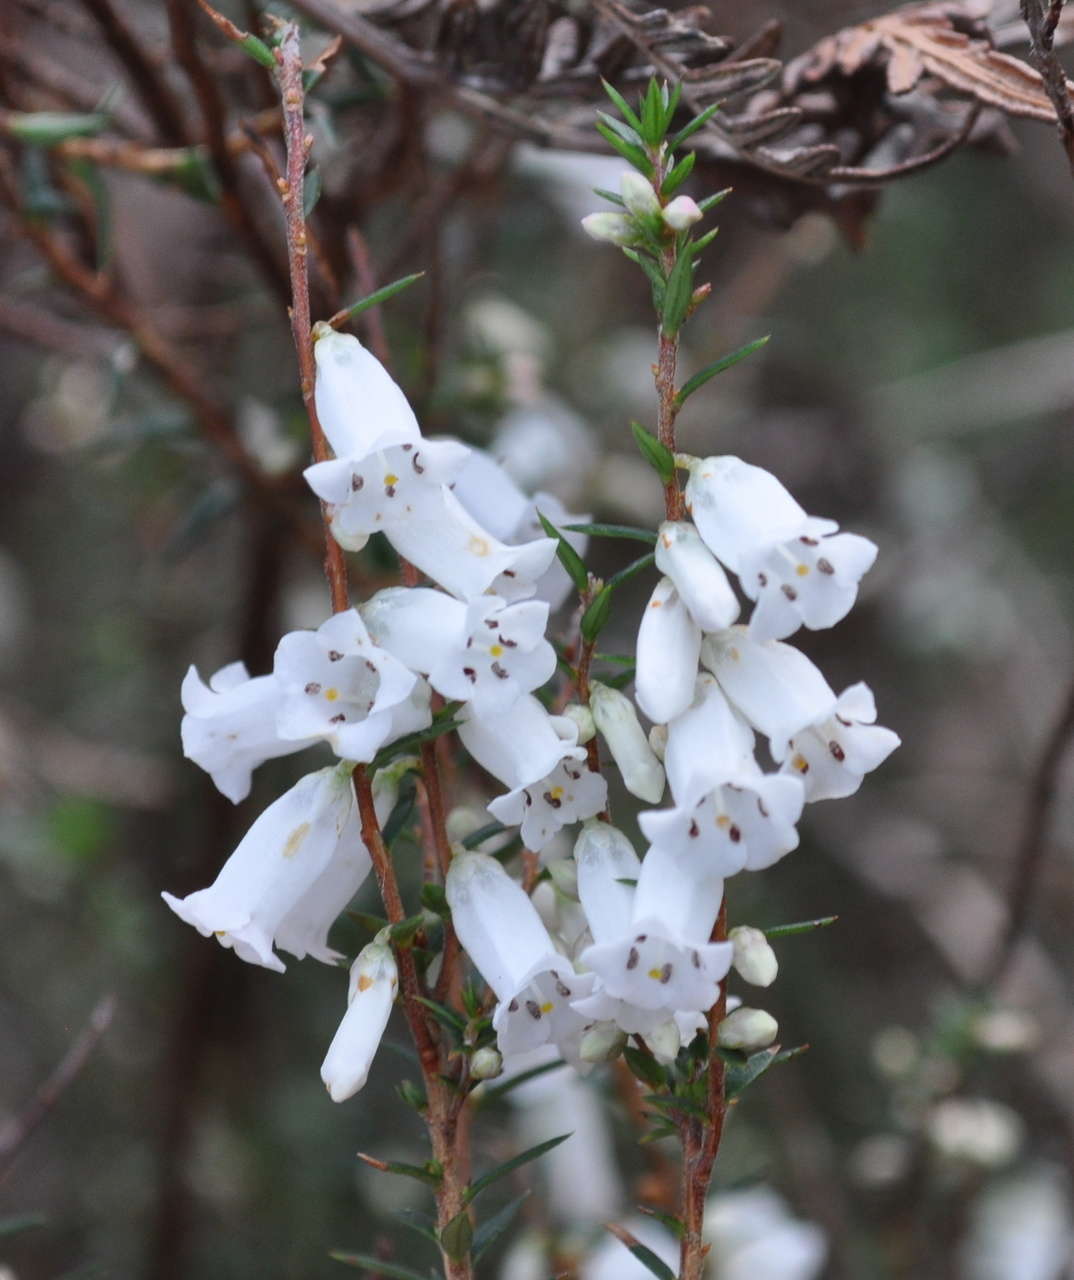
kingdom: Plantae
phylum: Tracheophyta
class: Magnoliopsida
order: Ericales
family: Ericaceae
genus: Epacris
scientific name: Epacris impressa
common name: Common-heath
